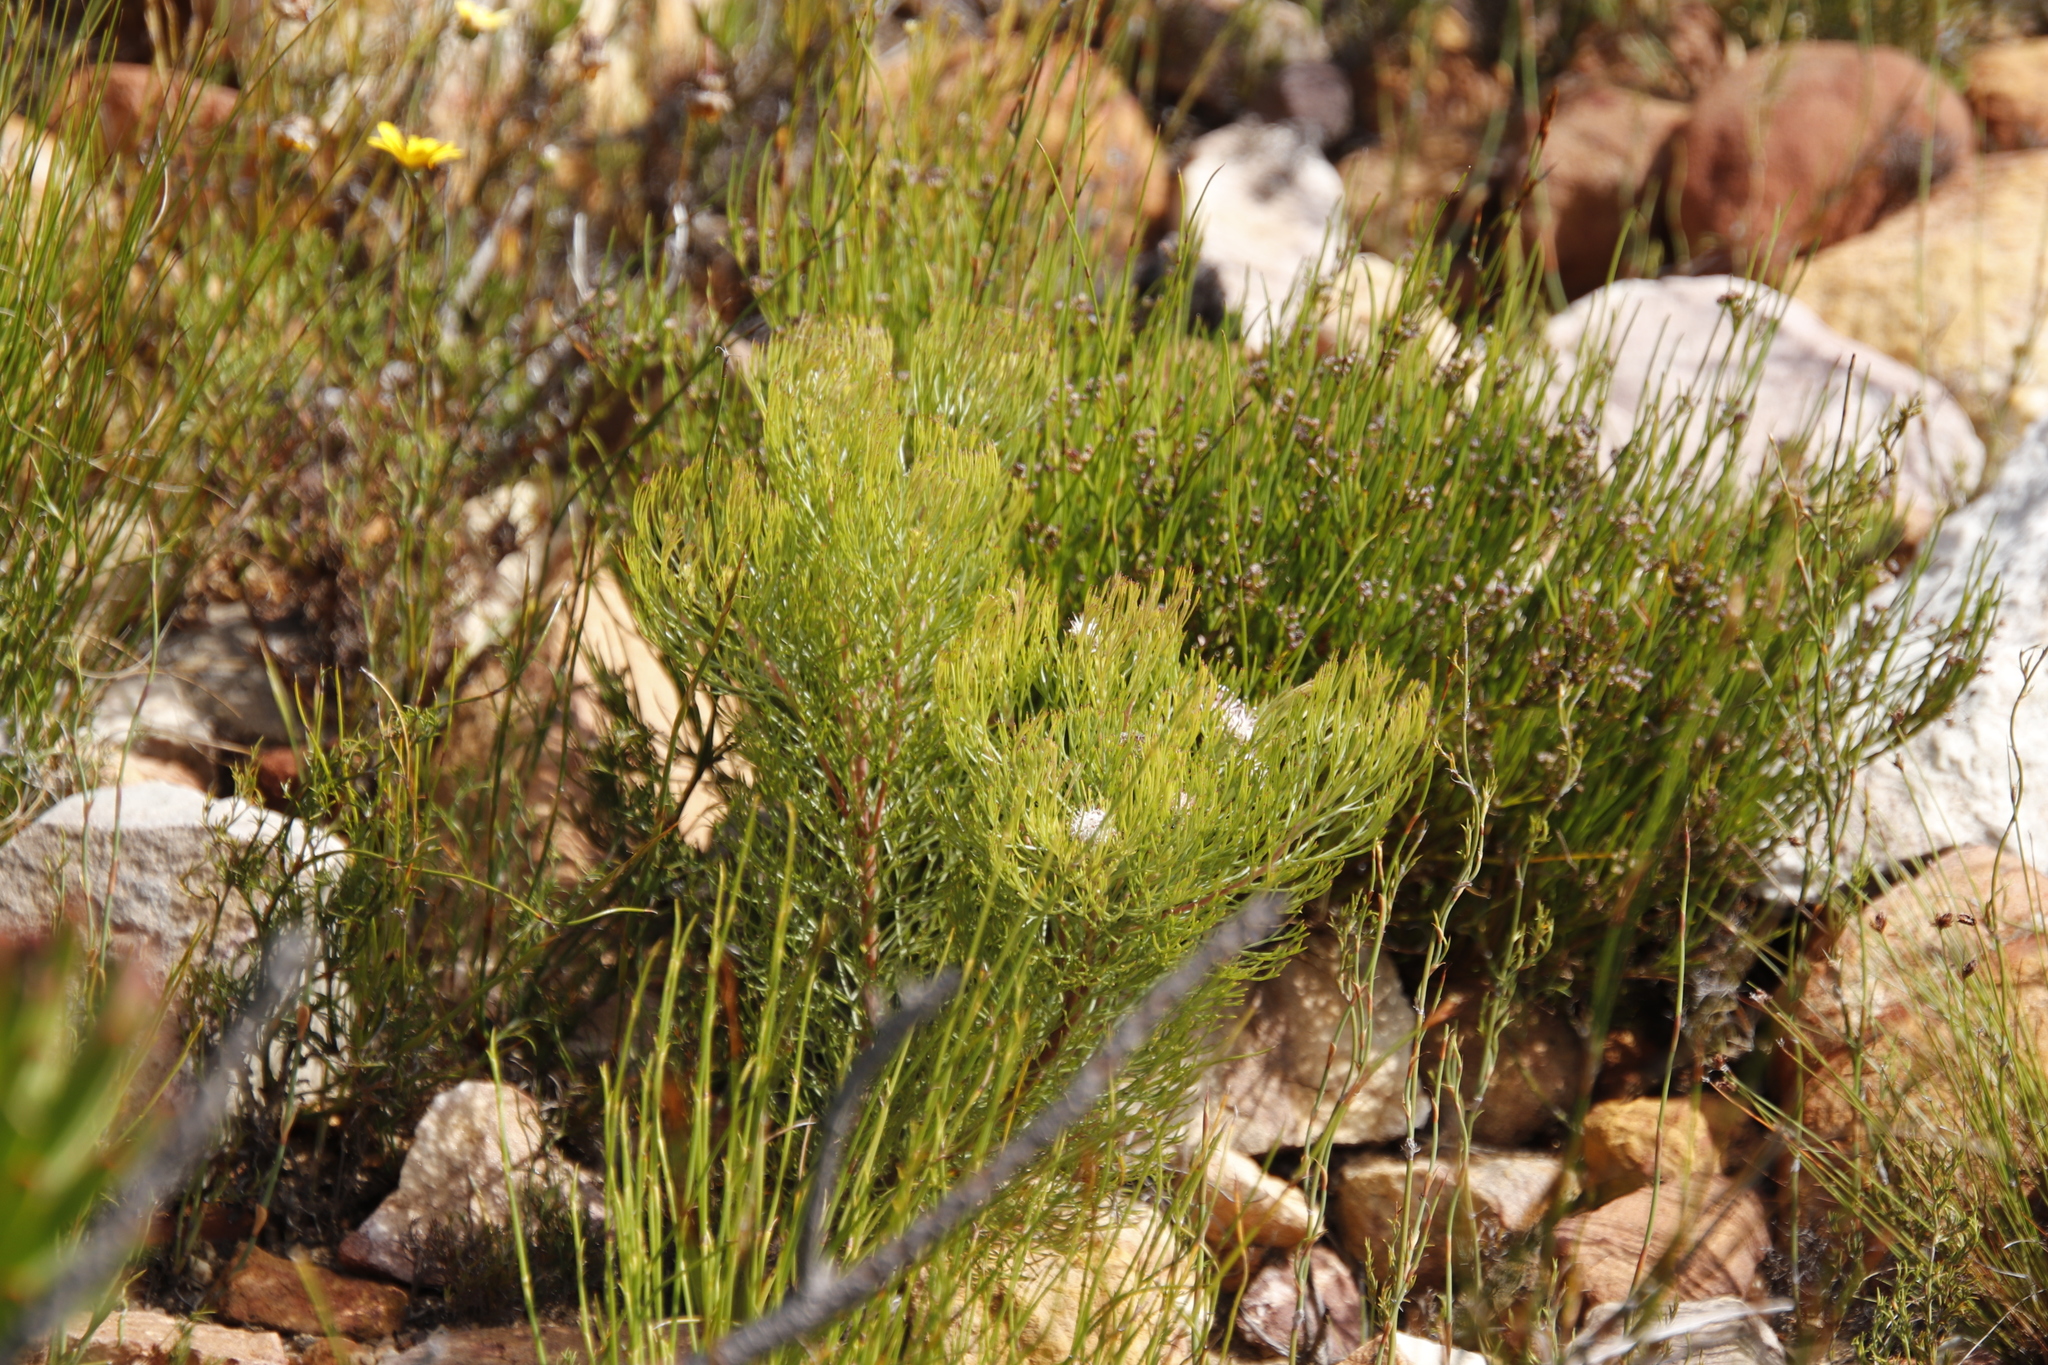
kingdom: Plantae
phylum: Tracheophyta
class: Magnoliopsida
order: Proteales
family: Proteaceae
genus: Serruria
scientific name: Serruria fasciflora
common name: Common pin spiderhead
